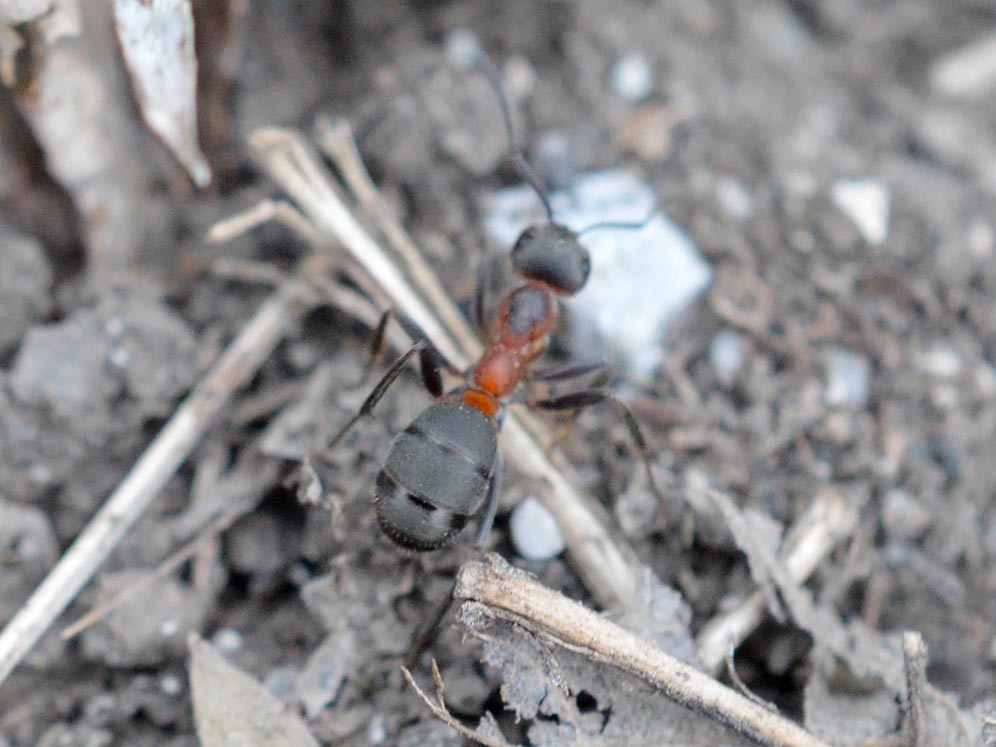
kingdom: Animalia
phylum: Arthropoda
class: Insecta
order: Hymenoptera
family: Formicidae
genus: Formica
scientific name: Formica pratensis
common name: European red wood ant
